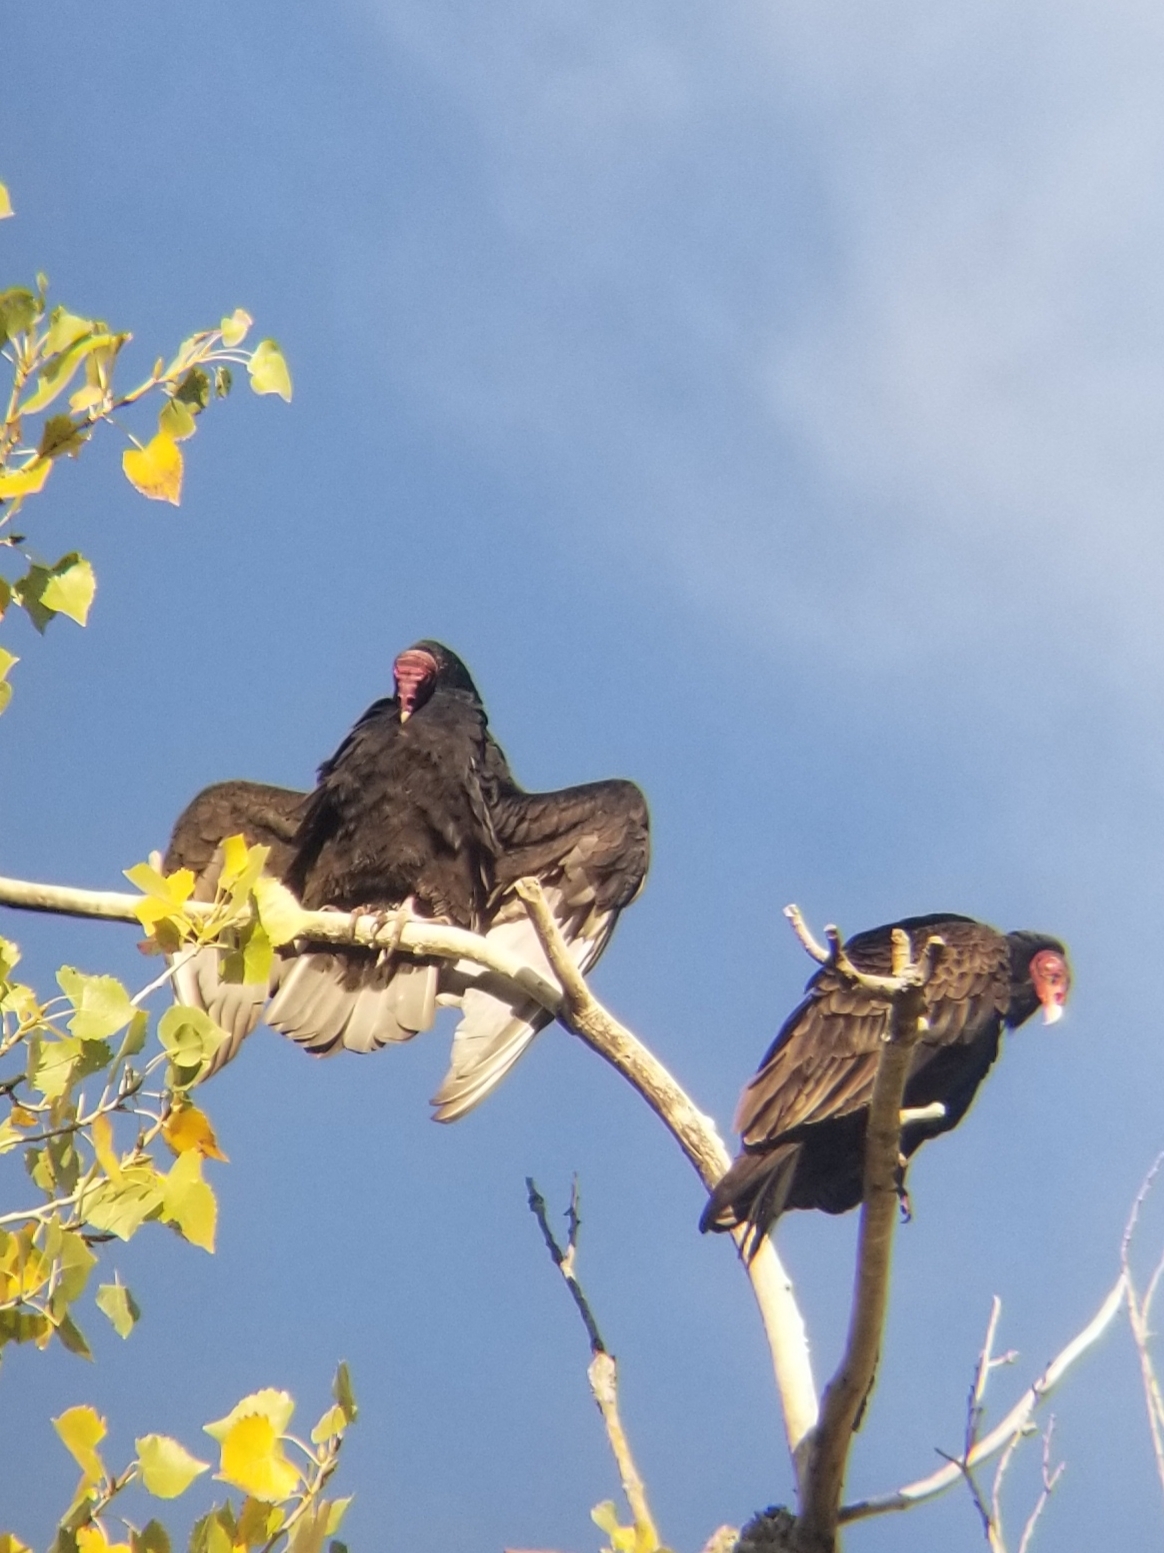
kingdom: Animalia
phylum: Chordata
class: Aves
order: Accipitriformes
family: Cathartidae
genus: Cathartes
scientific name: Cathartes aura
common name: Turkey vulture
